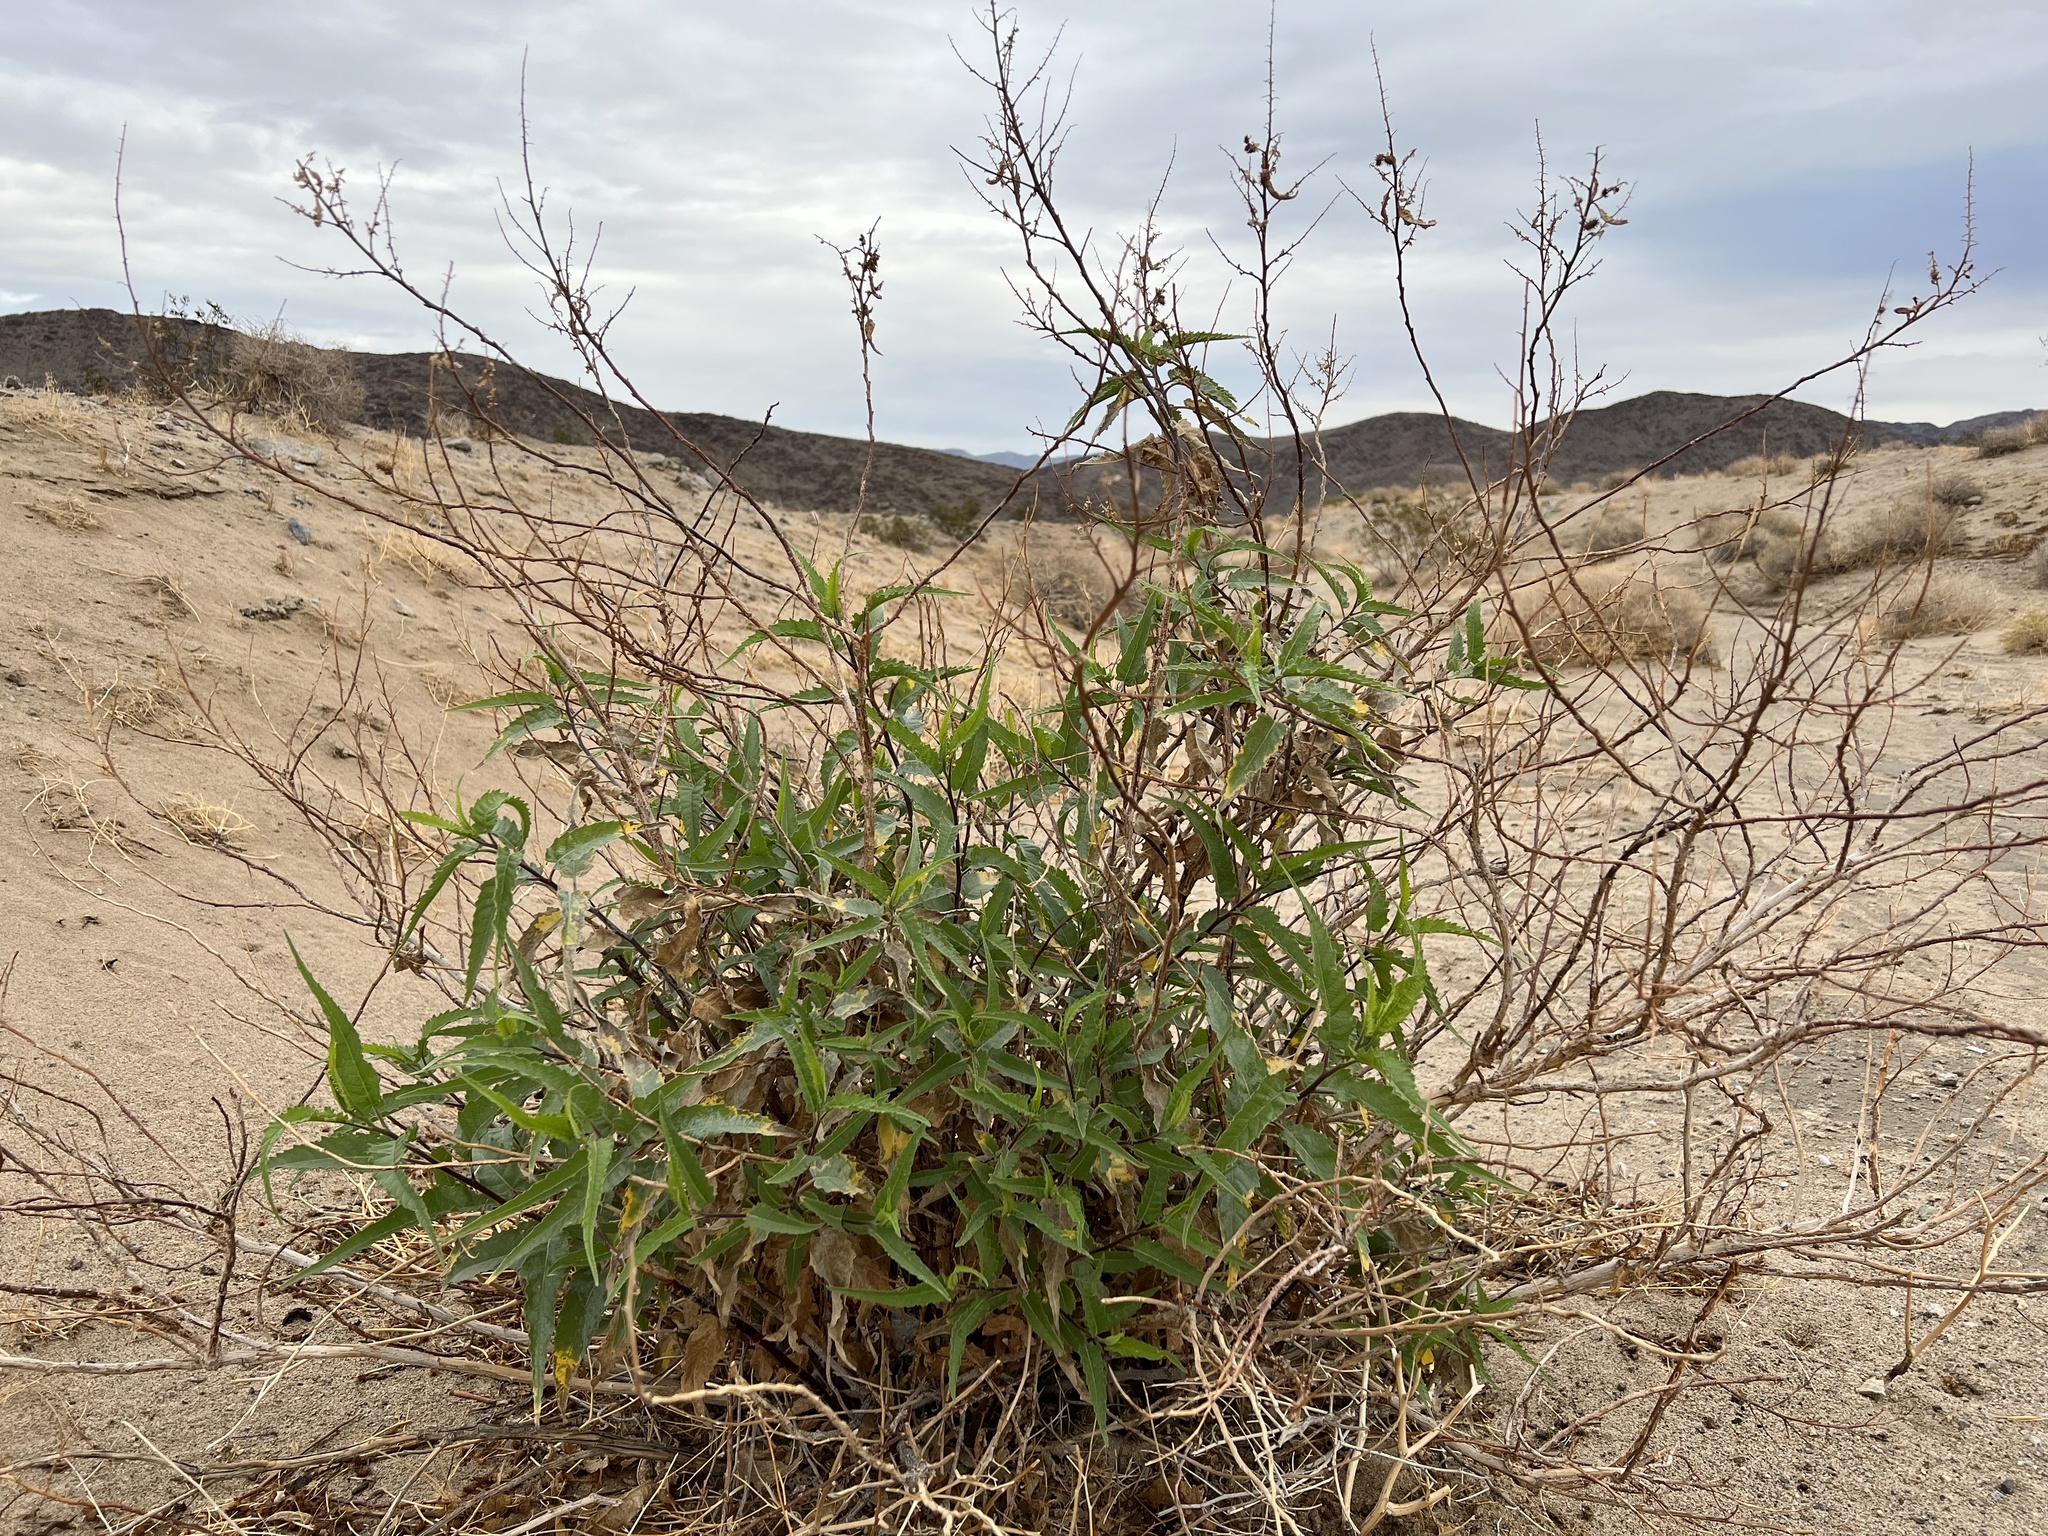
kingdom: Plantae
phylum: Tracheophyta
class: Magnoliopsida
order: Asterales
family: Asteraceae
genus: Ambrosia
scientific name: Ambrosia ambrosioides
